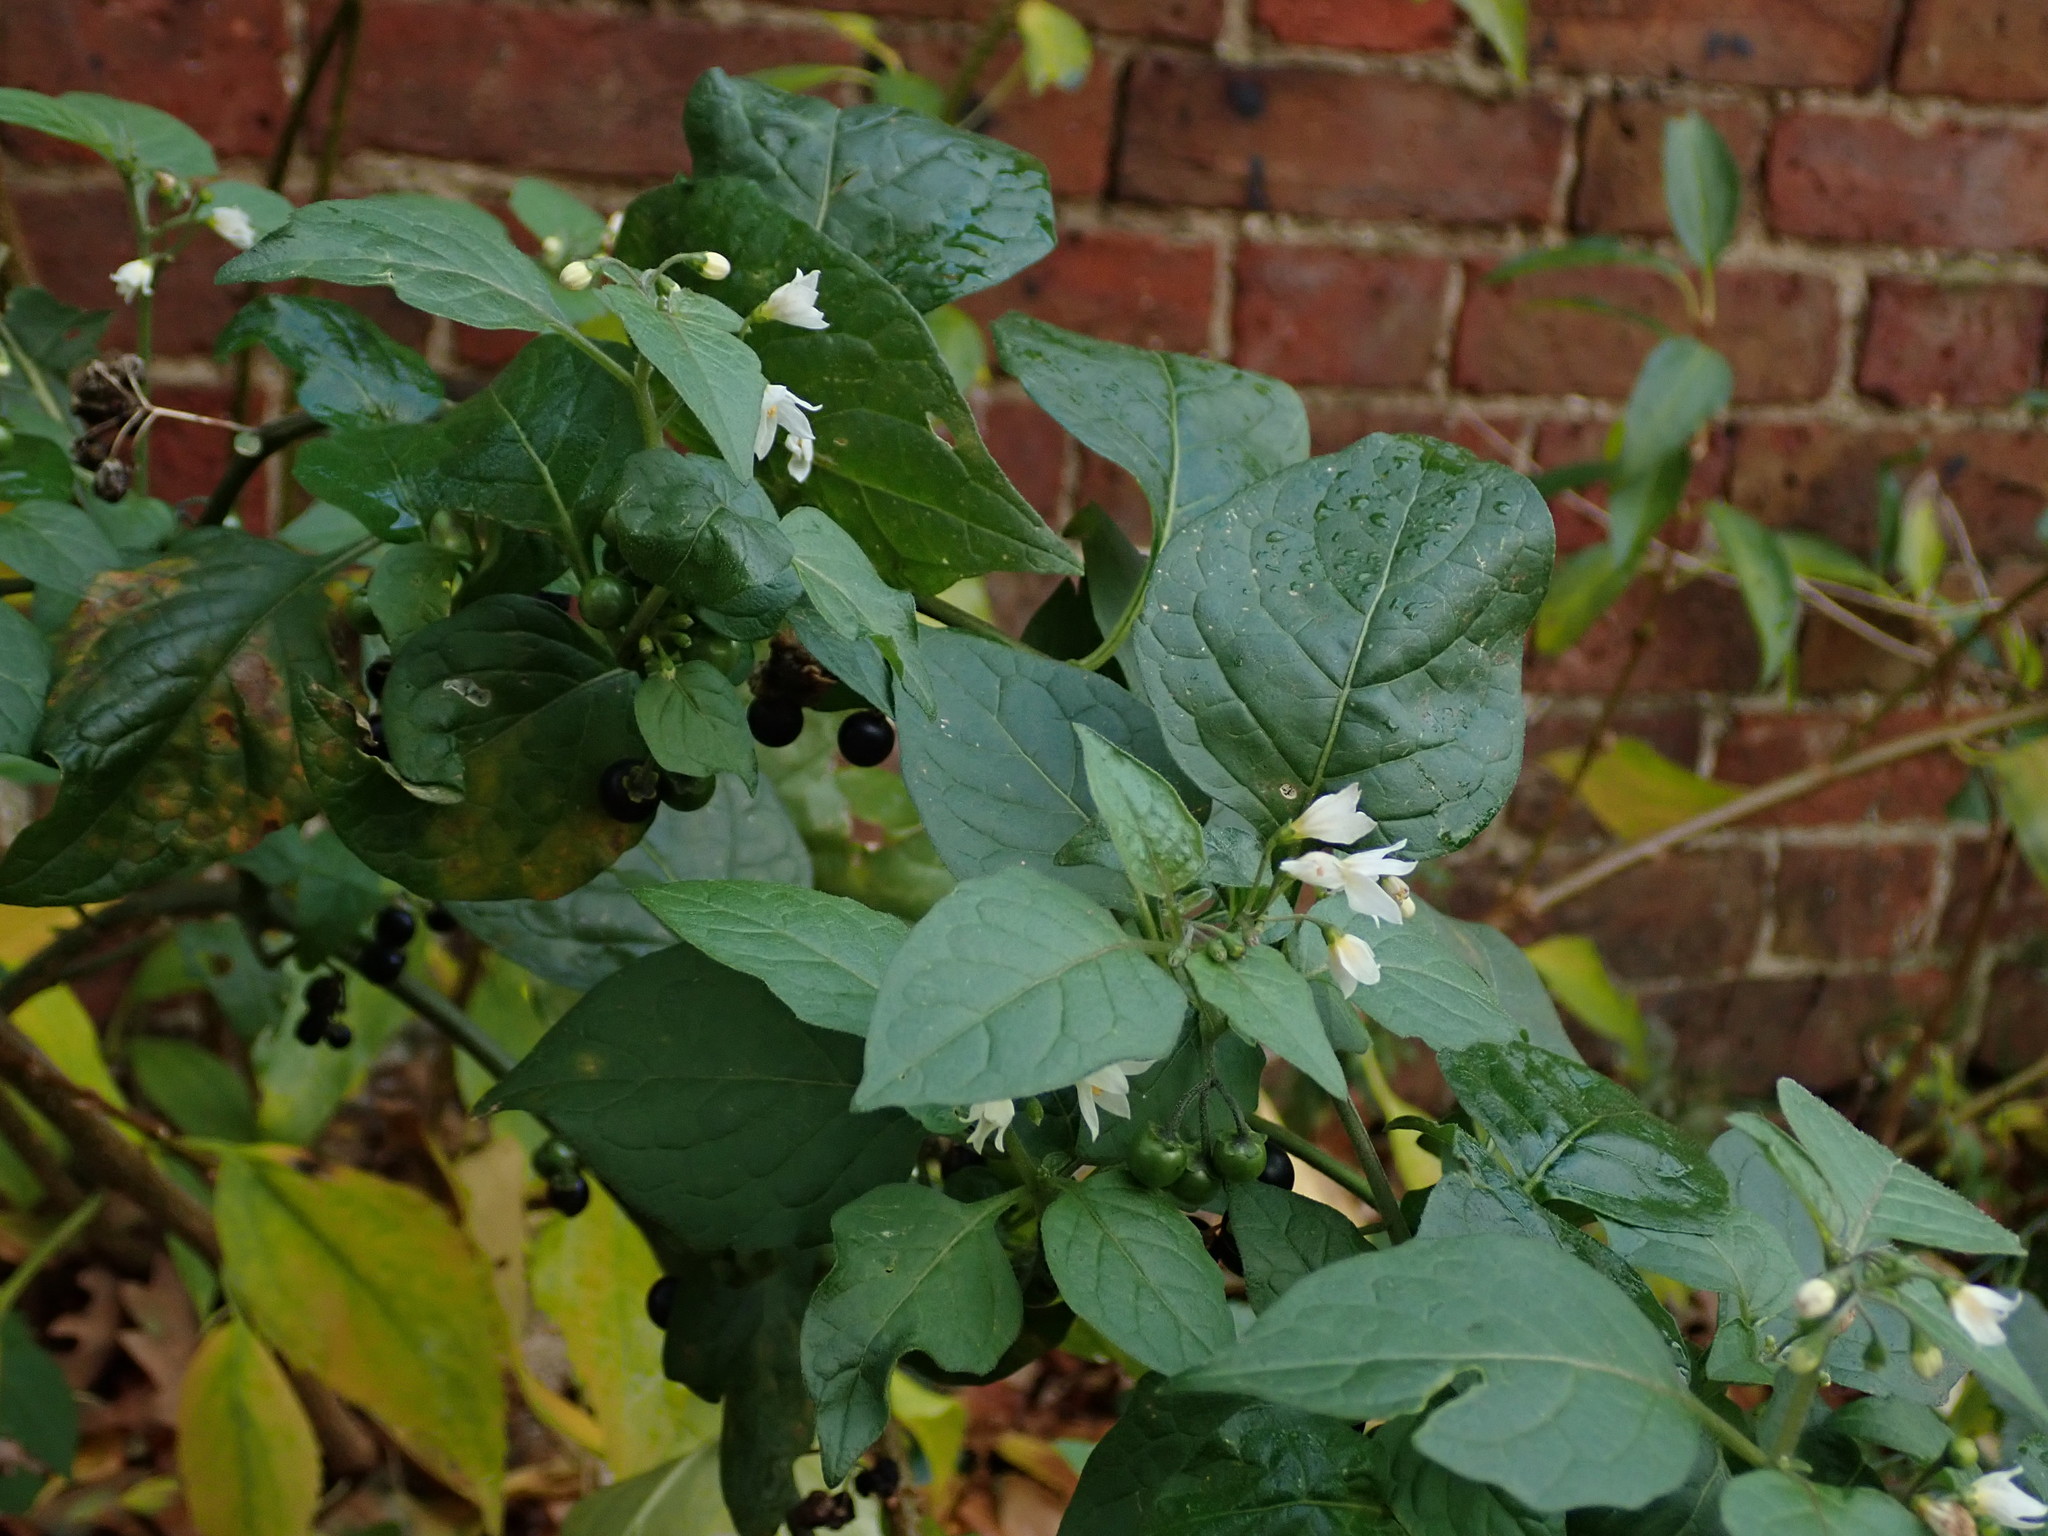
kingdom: Plantae
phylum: Tracheophyta
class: Magnoliopsida
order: Solanales
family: Solanaceae
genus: Solanum
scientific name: Solanum nigrum
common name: Black nightshade
